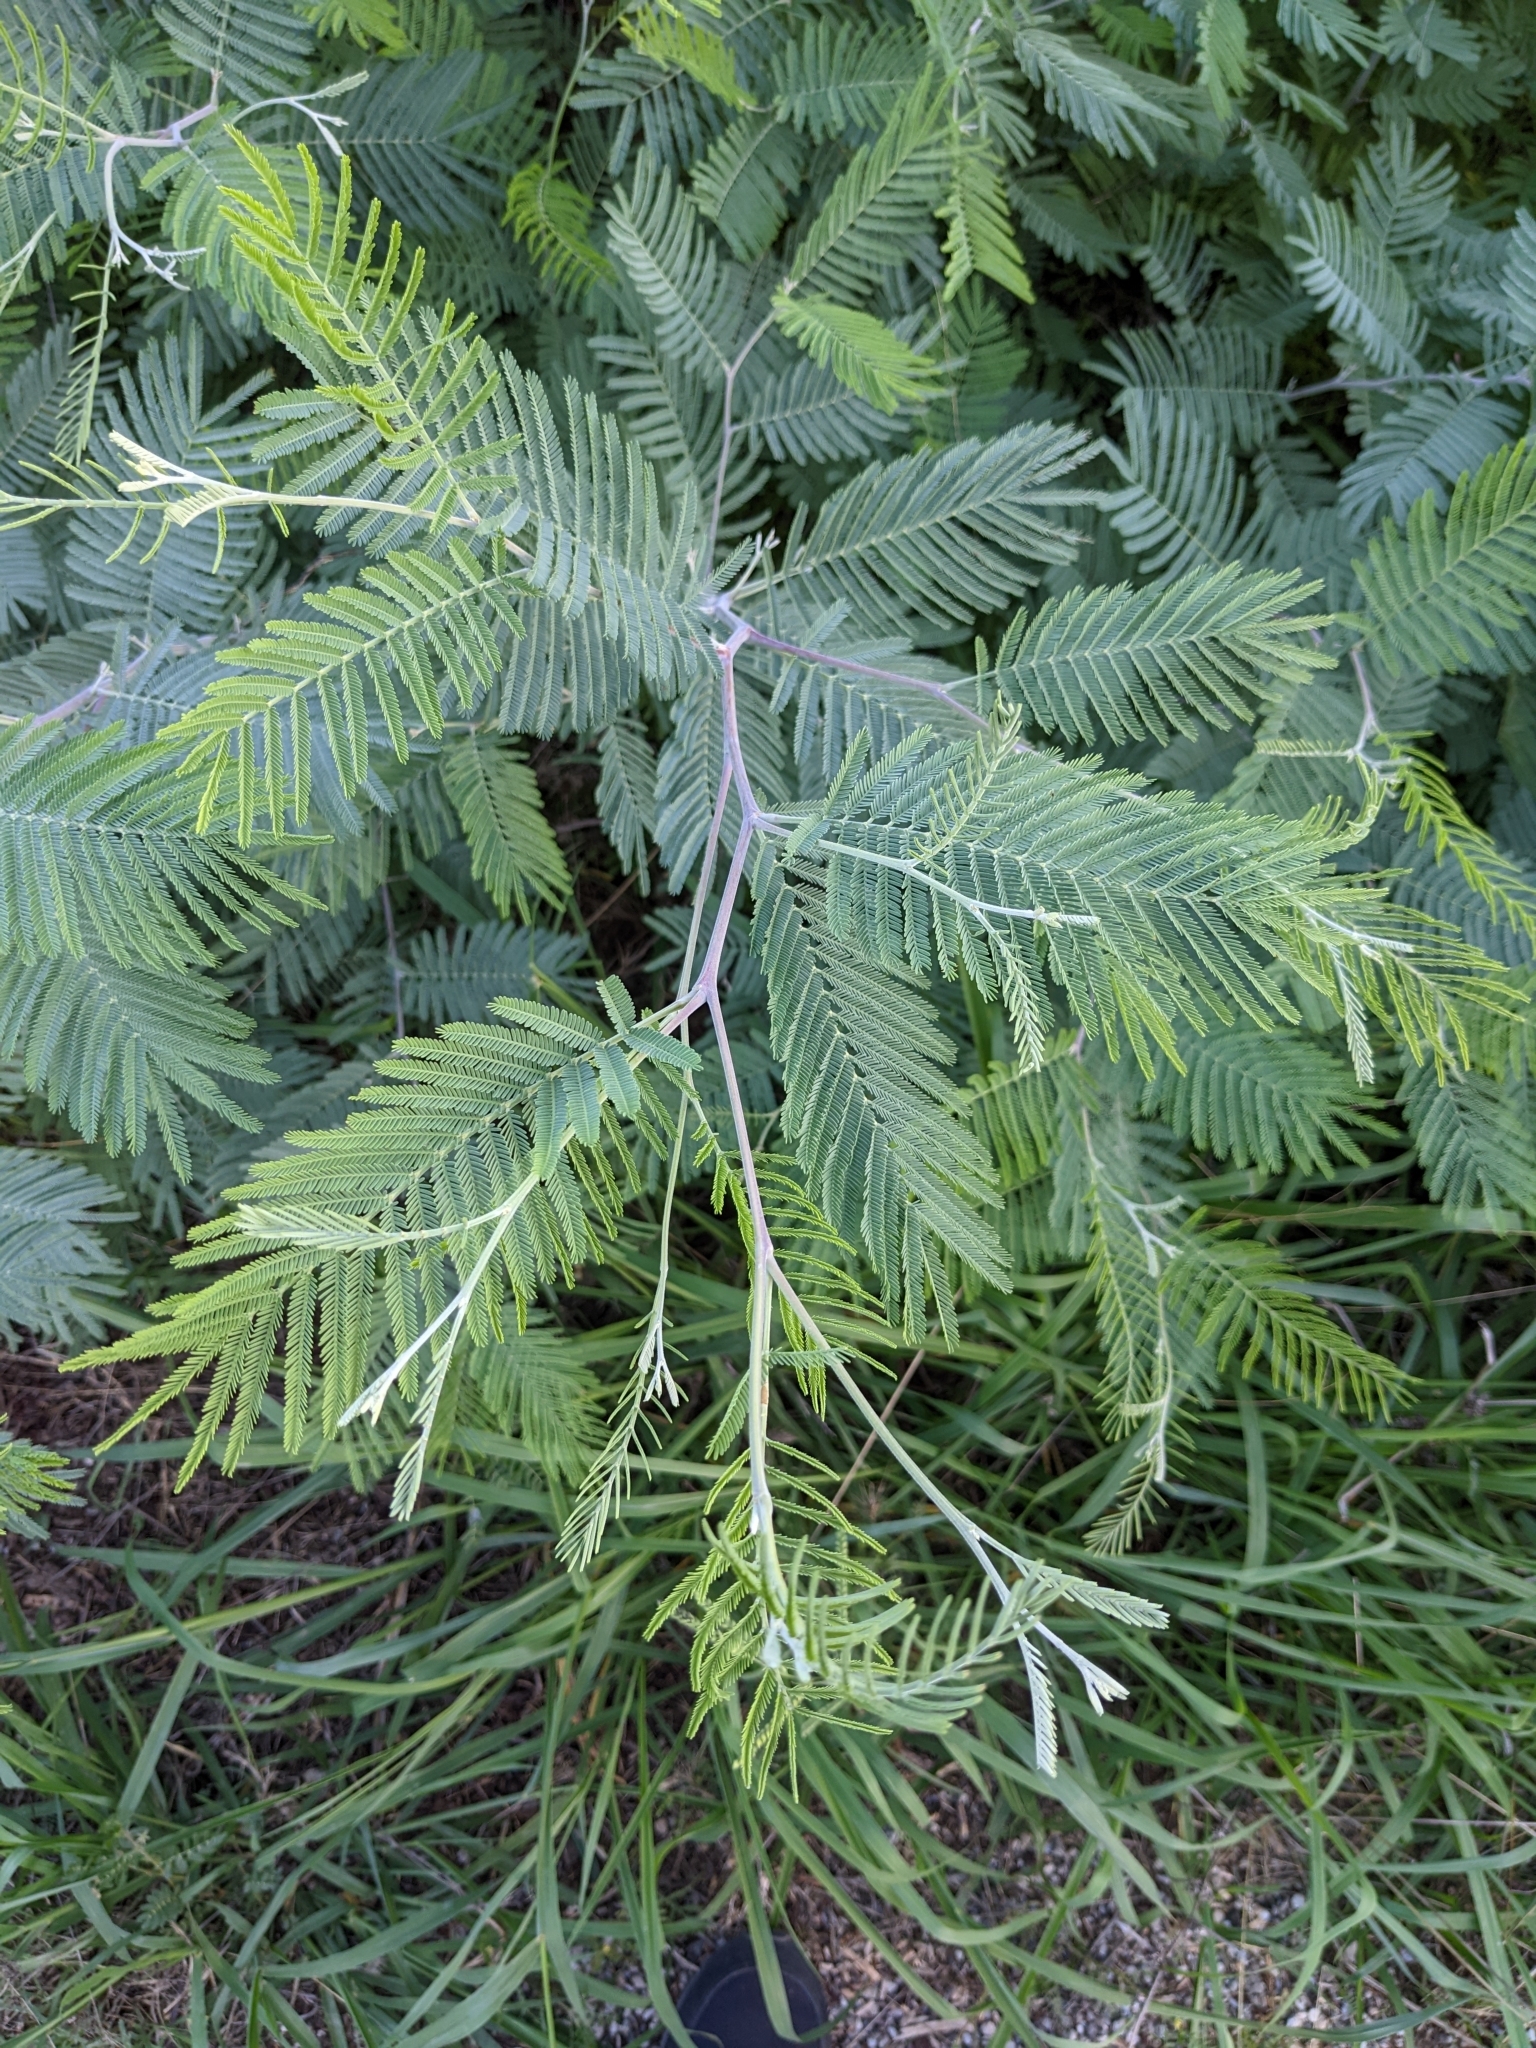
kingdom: Plantae
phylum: Tracheophyta
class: Magnoliopsida
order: Fabales
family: Fabaceae
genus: Acacia
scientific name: Acacia dealbata
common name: Silver wattle
